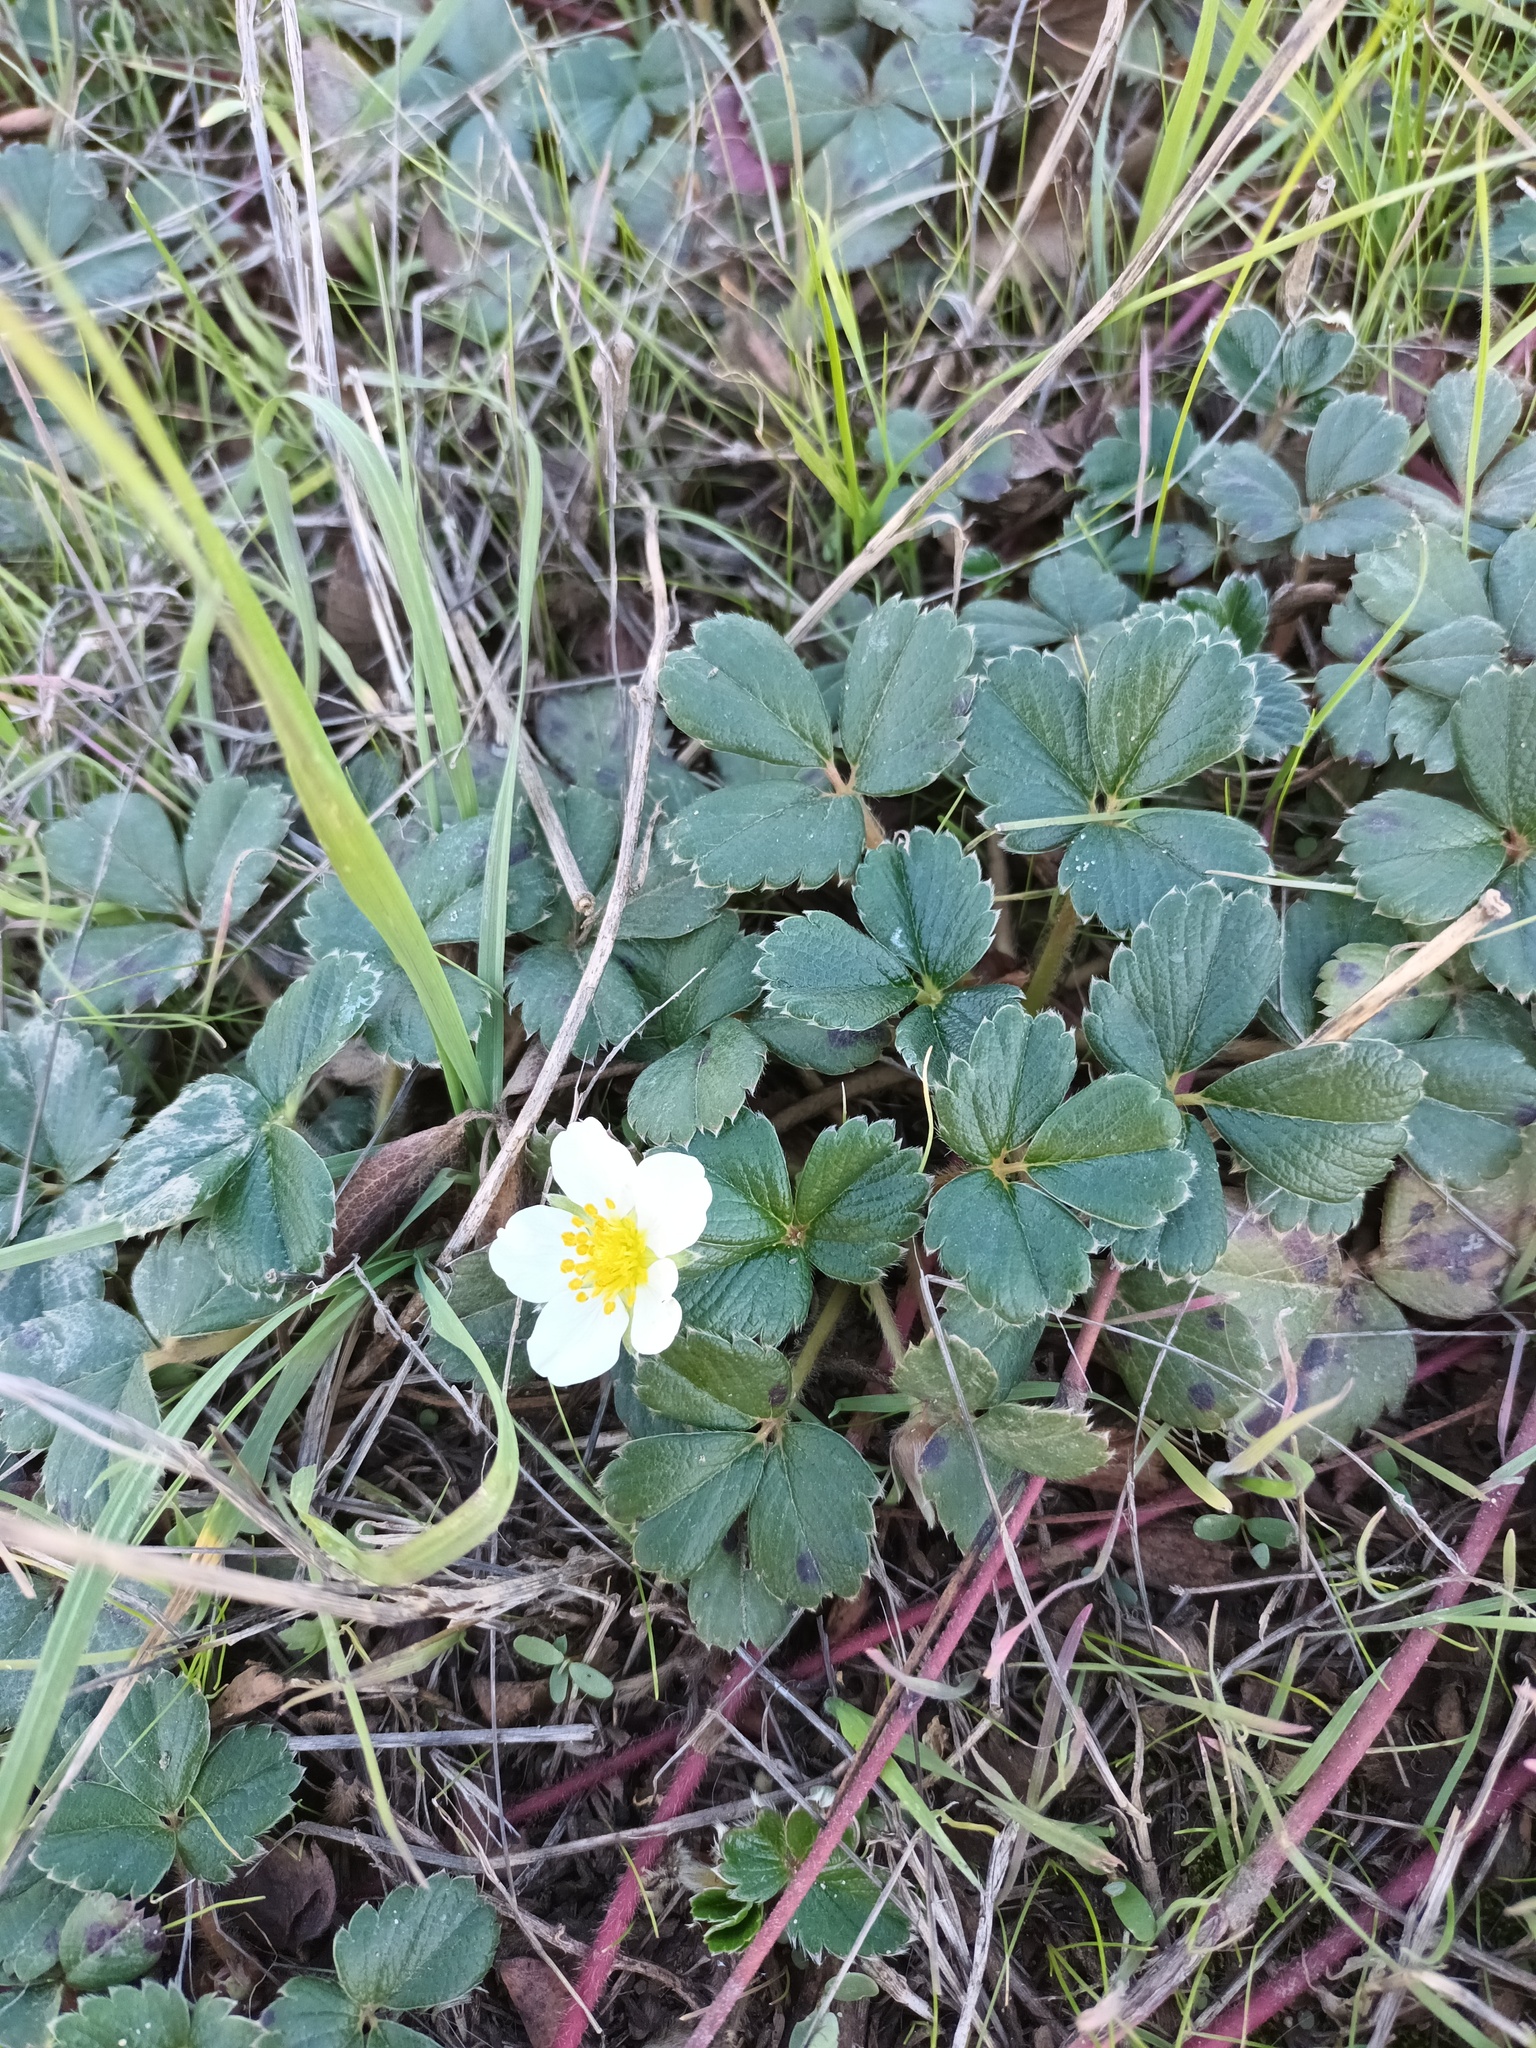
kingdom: Plantae
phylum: Tracheophyta
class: Magnoliopsida
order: Rosales
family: Rosaceae
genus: Fragaria
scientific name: Fragaria chiloensis
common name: Beach strawberry
